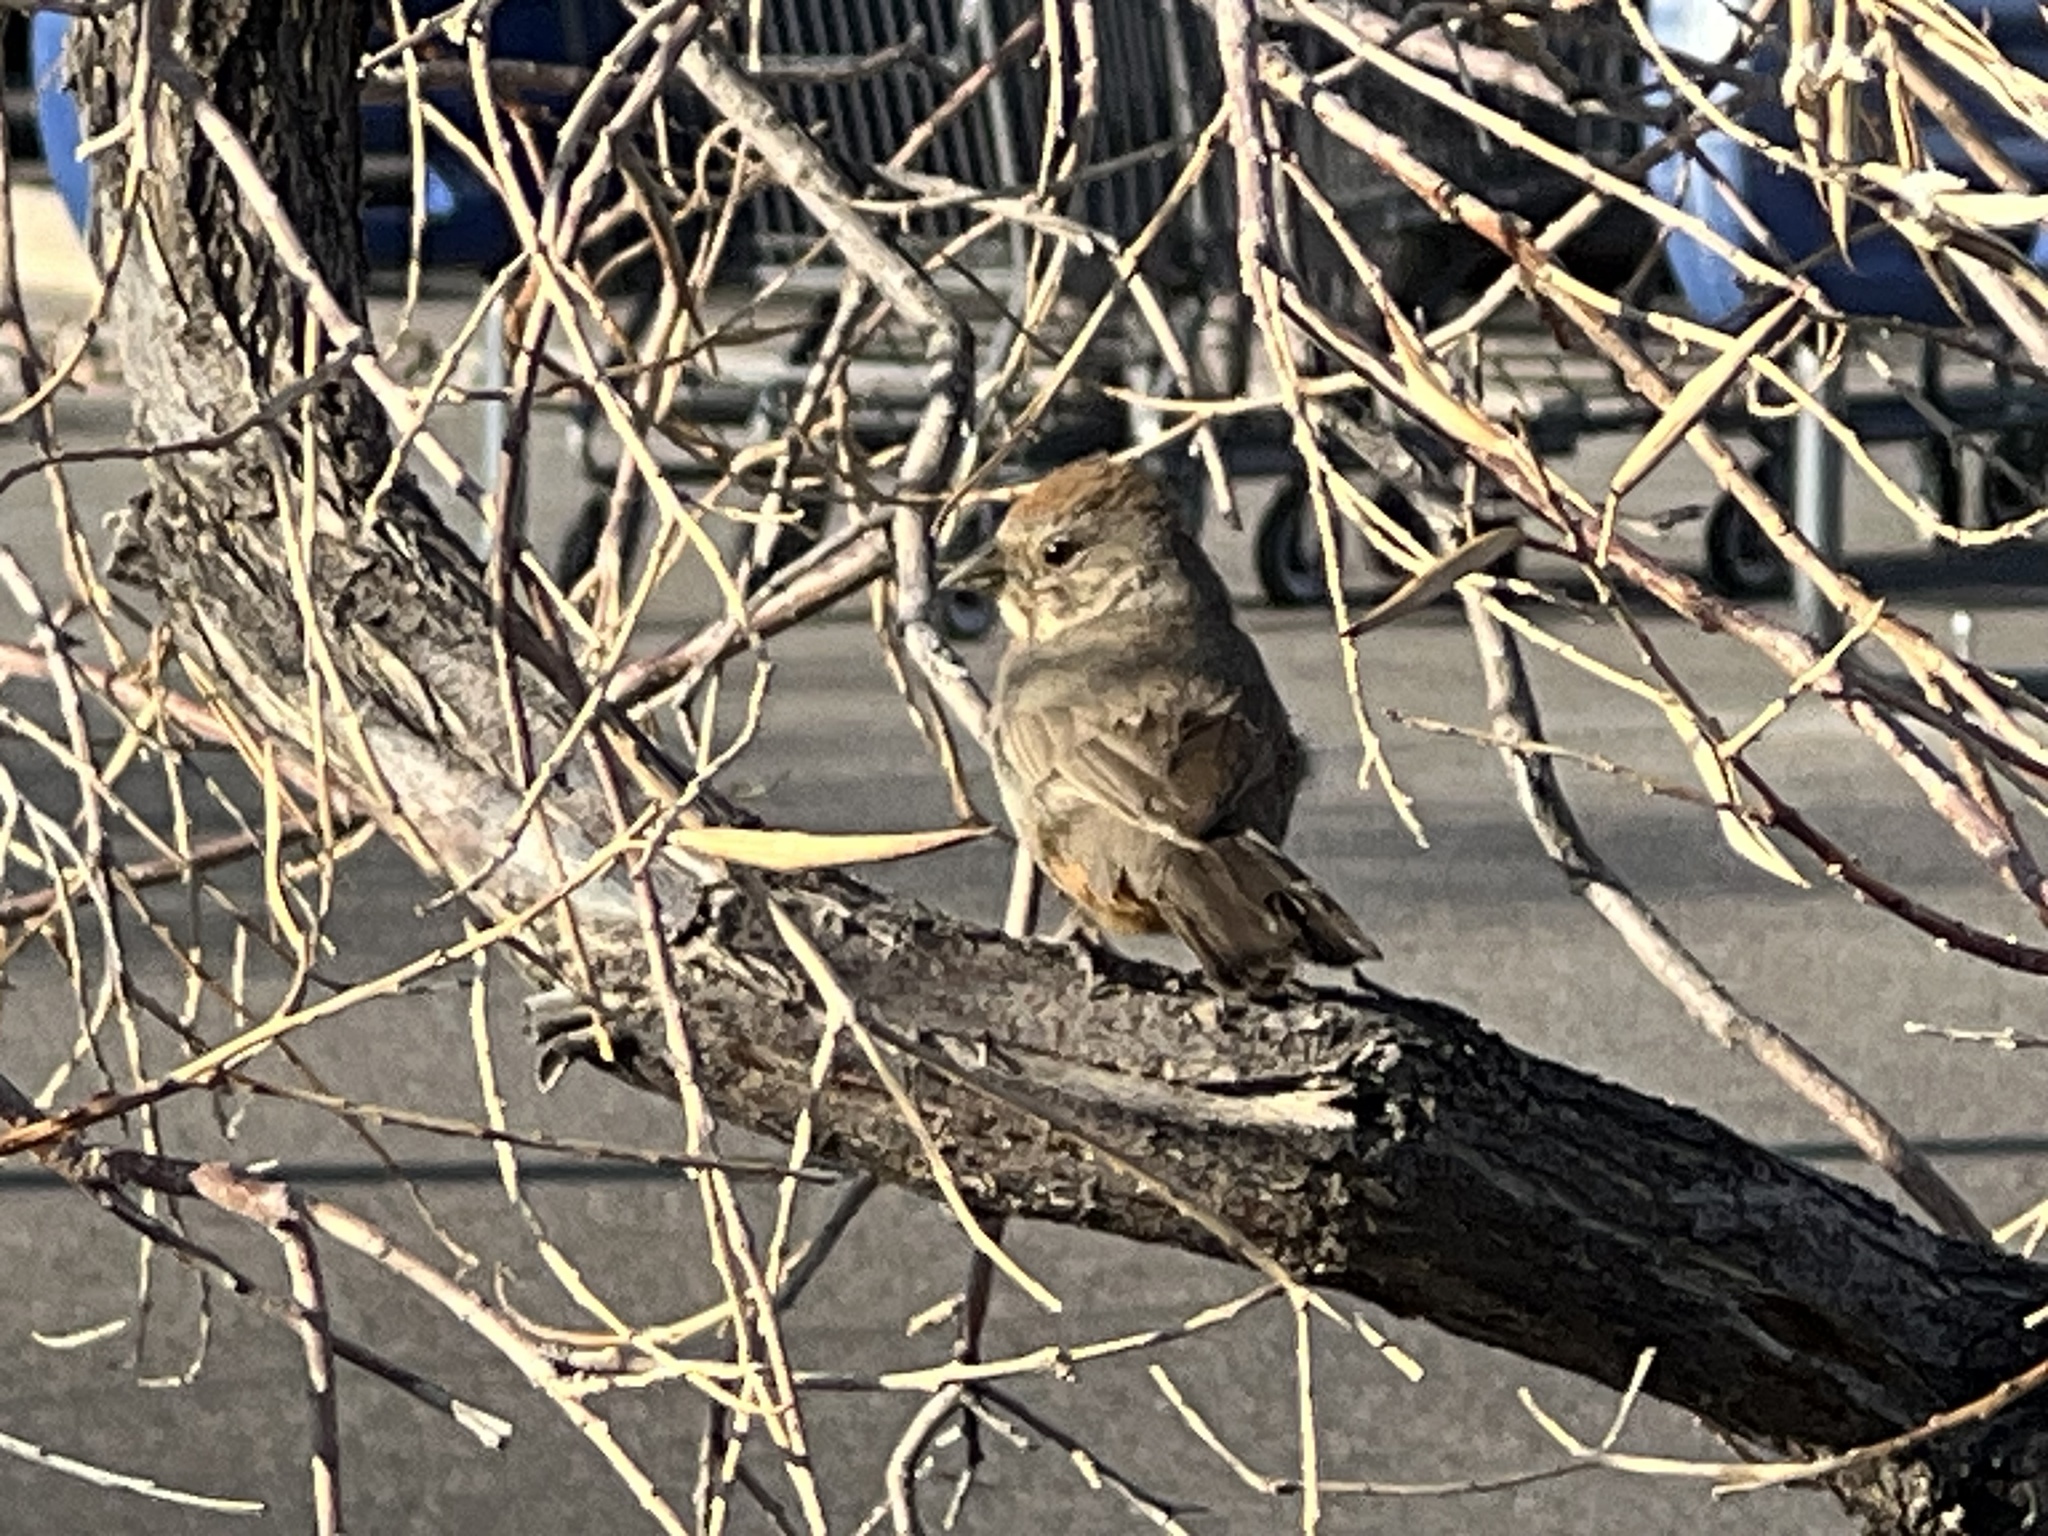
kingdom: Animalia
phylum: Chordata
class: Aves
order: Passeriformes
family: Passerellidae
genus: Melozone
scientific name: Melozone fusca
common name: Canyon towhee
